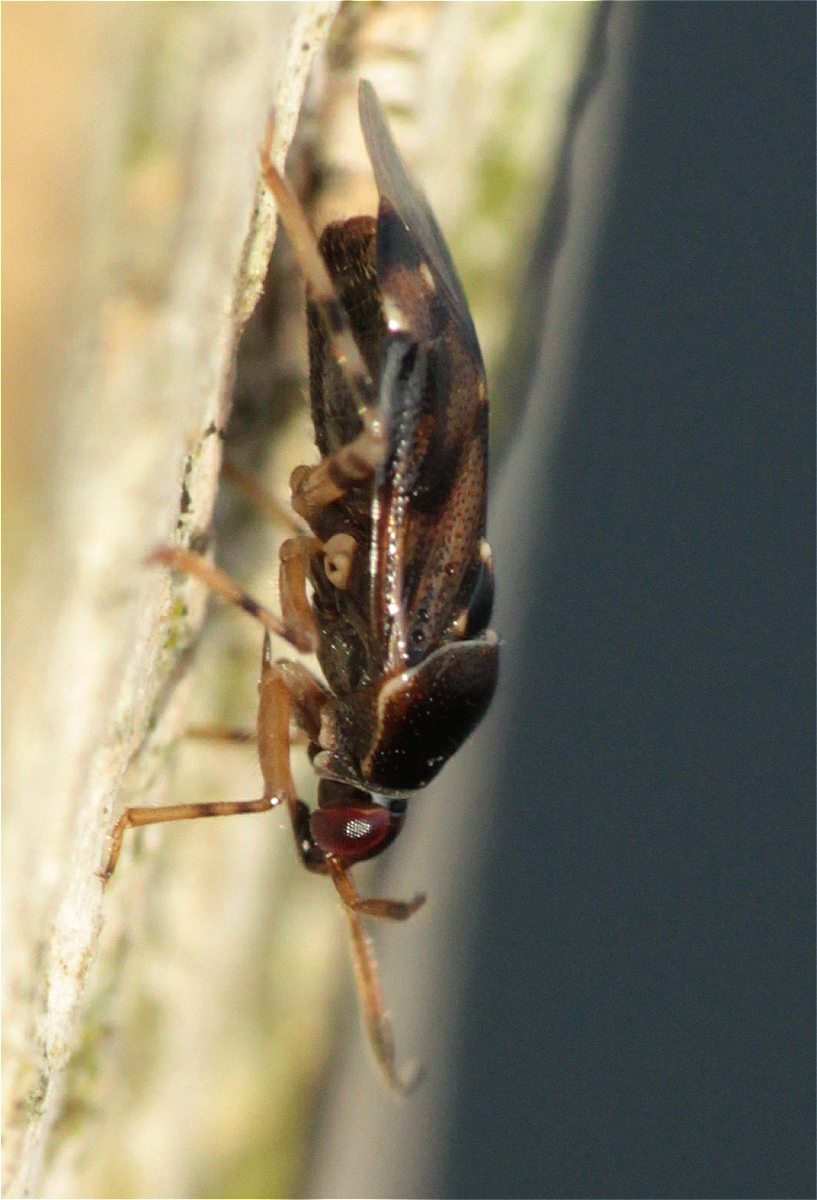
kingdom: Animalia
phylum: Arthropoda
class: Insecta
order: Hemiptera
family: Miridae
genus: Deraeocoris
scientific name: Deraeocoris lutescens
